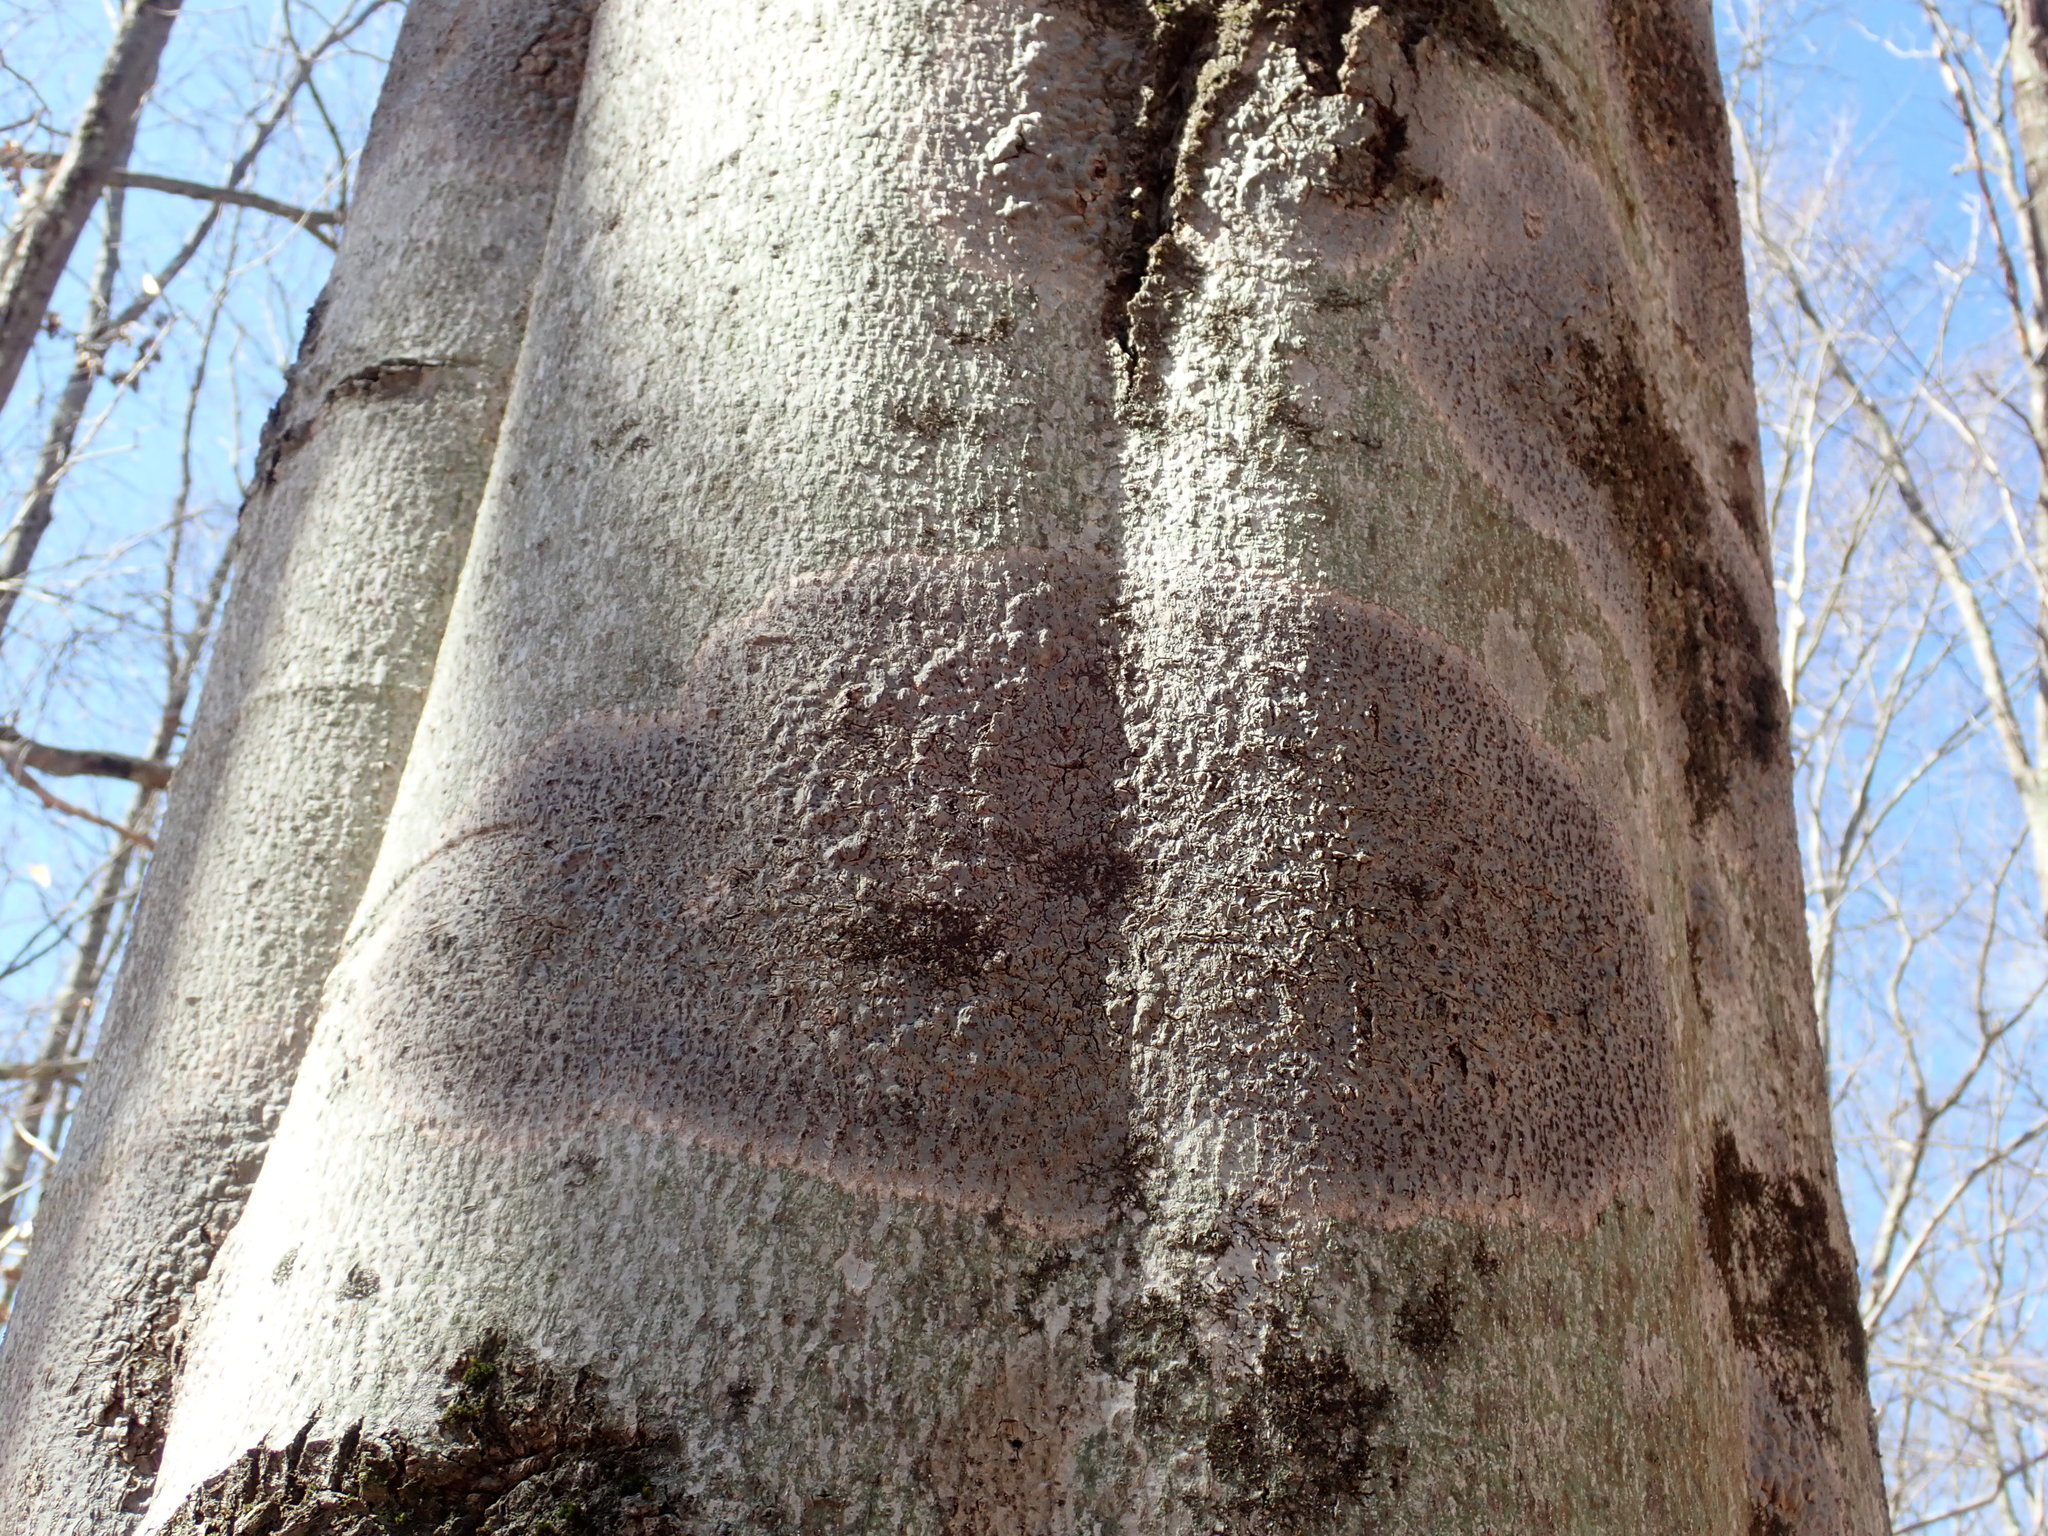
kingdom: Fungi
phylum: Ascomycota
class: Dothideomycetes
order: Trypetheliales
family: Trypetheliaceae
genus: Viridothelium
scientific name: Viridothelium virens
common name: Speckled blister lichen
